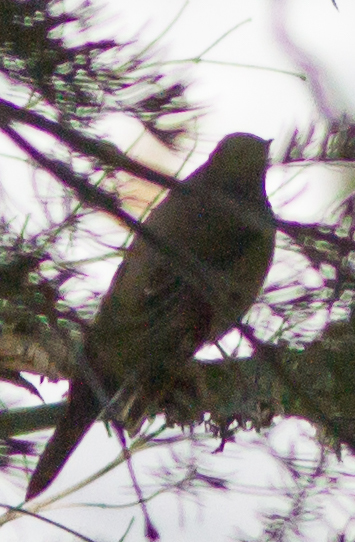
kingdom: Animalia
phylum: Chordata
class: Aves
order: Passeriformes
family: Turdidae
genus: Myadestes
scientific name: Myadestes townsendi
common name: Townsend's solitaire
